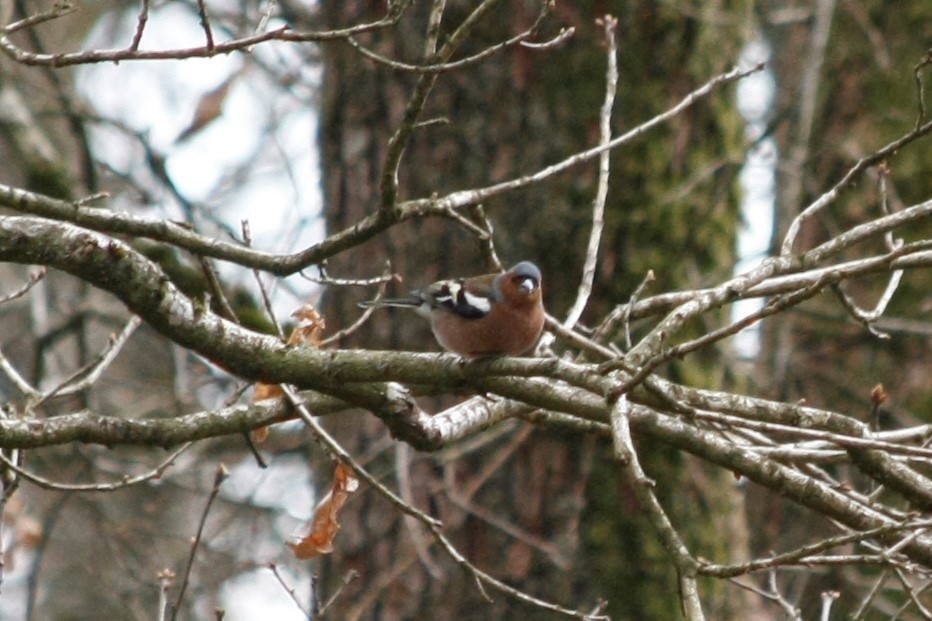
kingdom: Animalia
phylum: Chordata
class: Aves
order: Passeriformes
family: Fringillidae
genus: Fringilla
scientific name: Fringilla coelebs
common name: Common chaffinch
